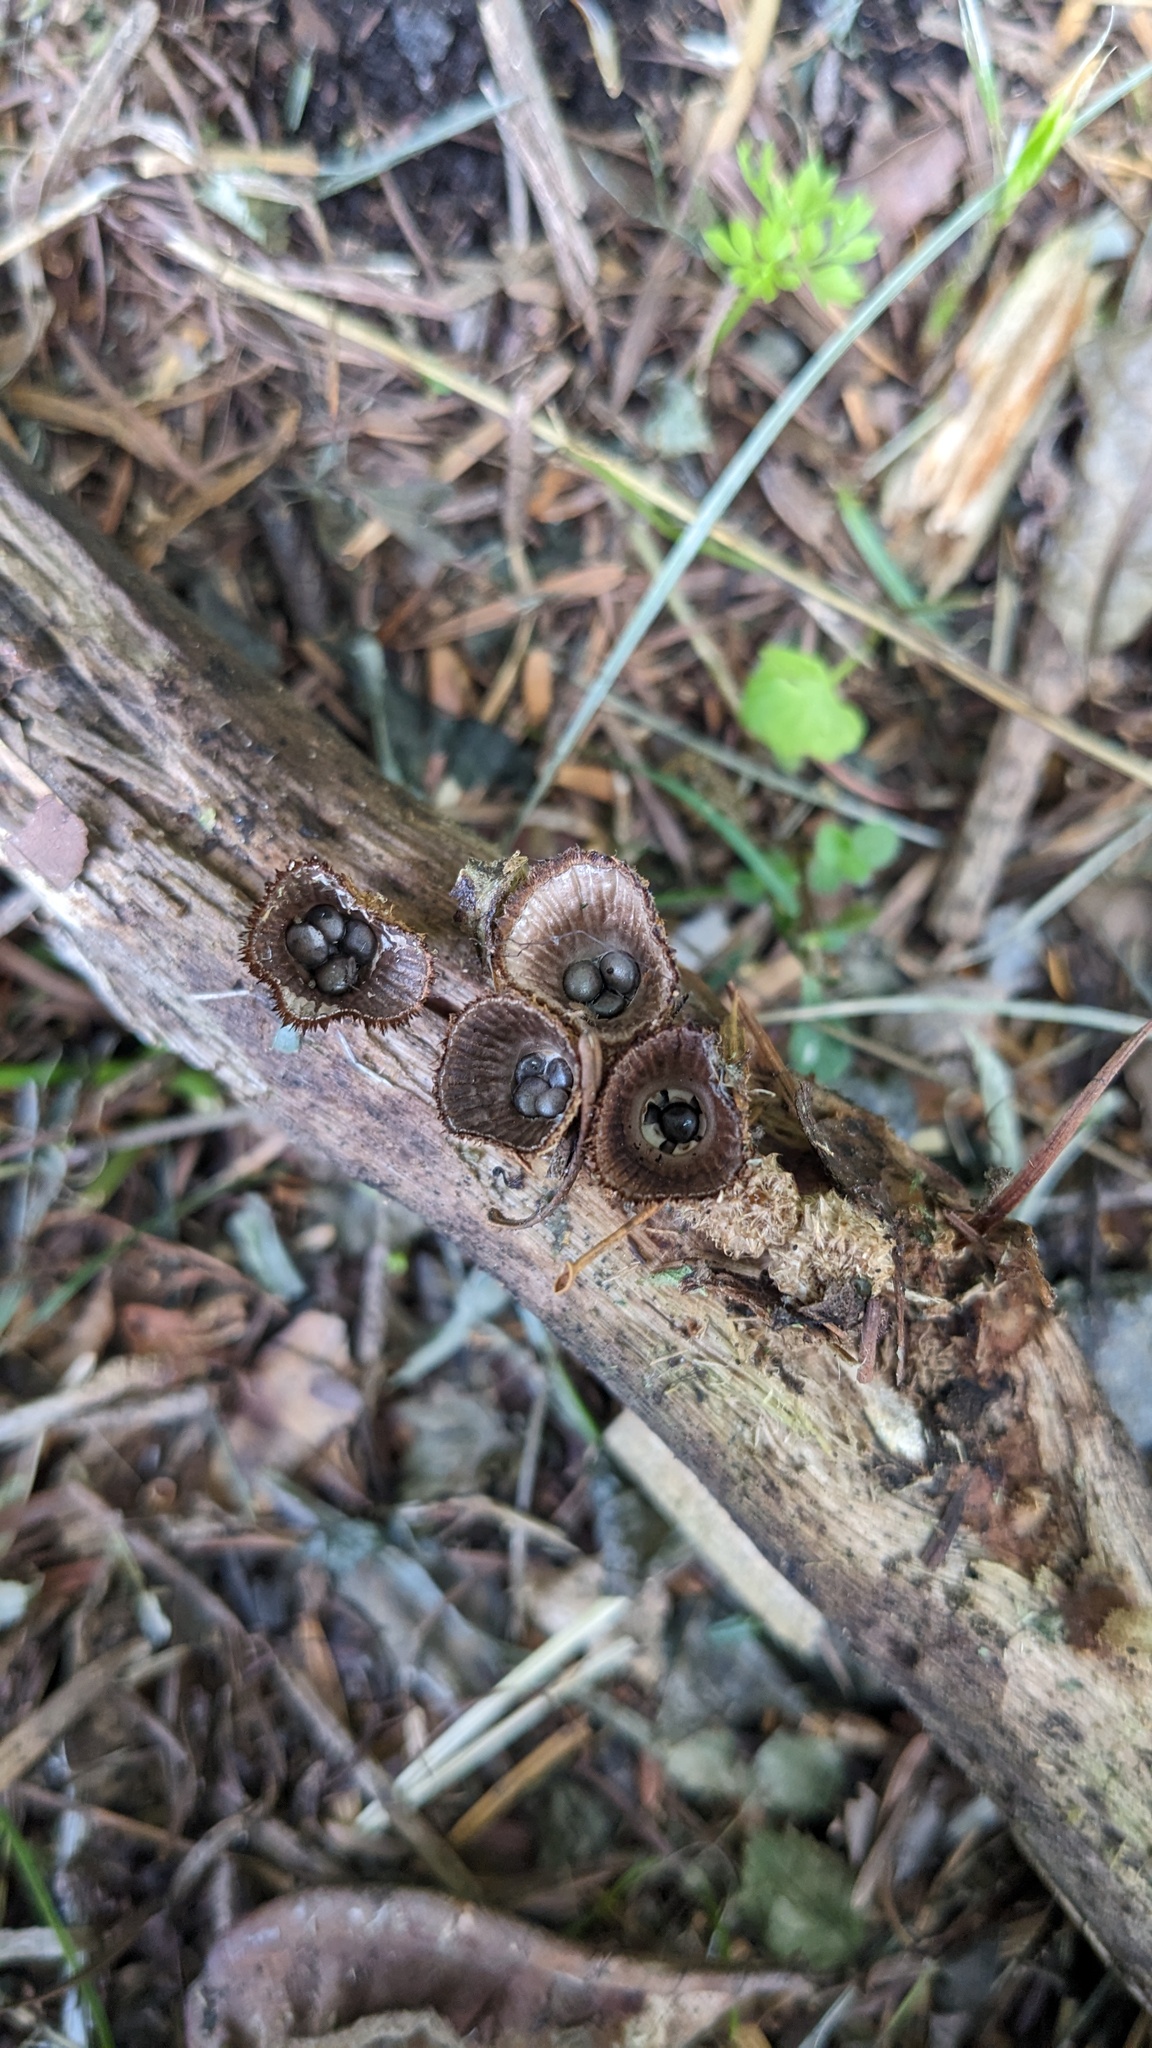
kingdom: Fungi
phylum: Basidiomycota
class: Agaricomycetes
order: Agaricales
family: Agaricaceae
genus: Cyathus
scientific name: Cyathus striatus
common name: Fluted bird's nest
